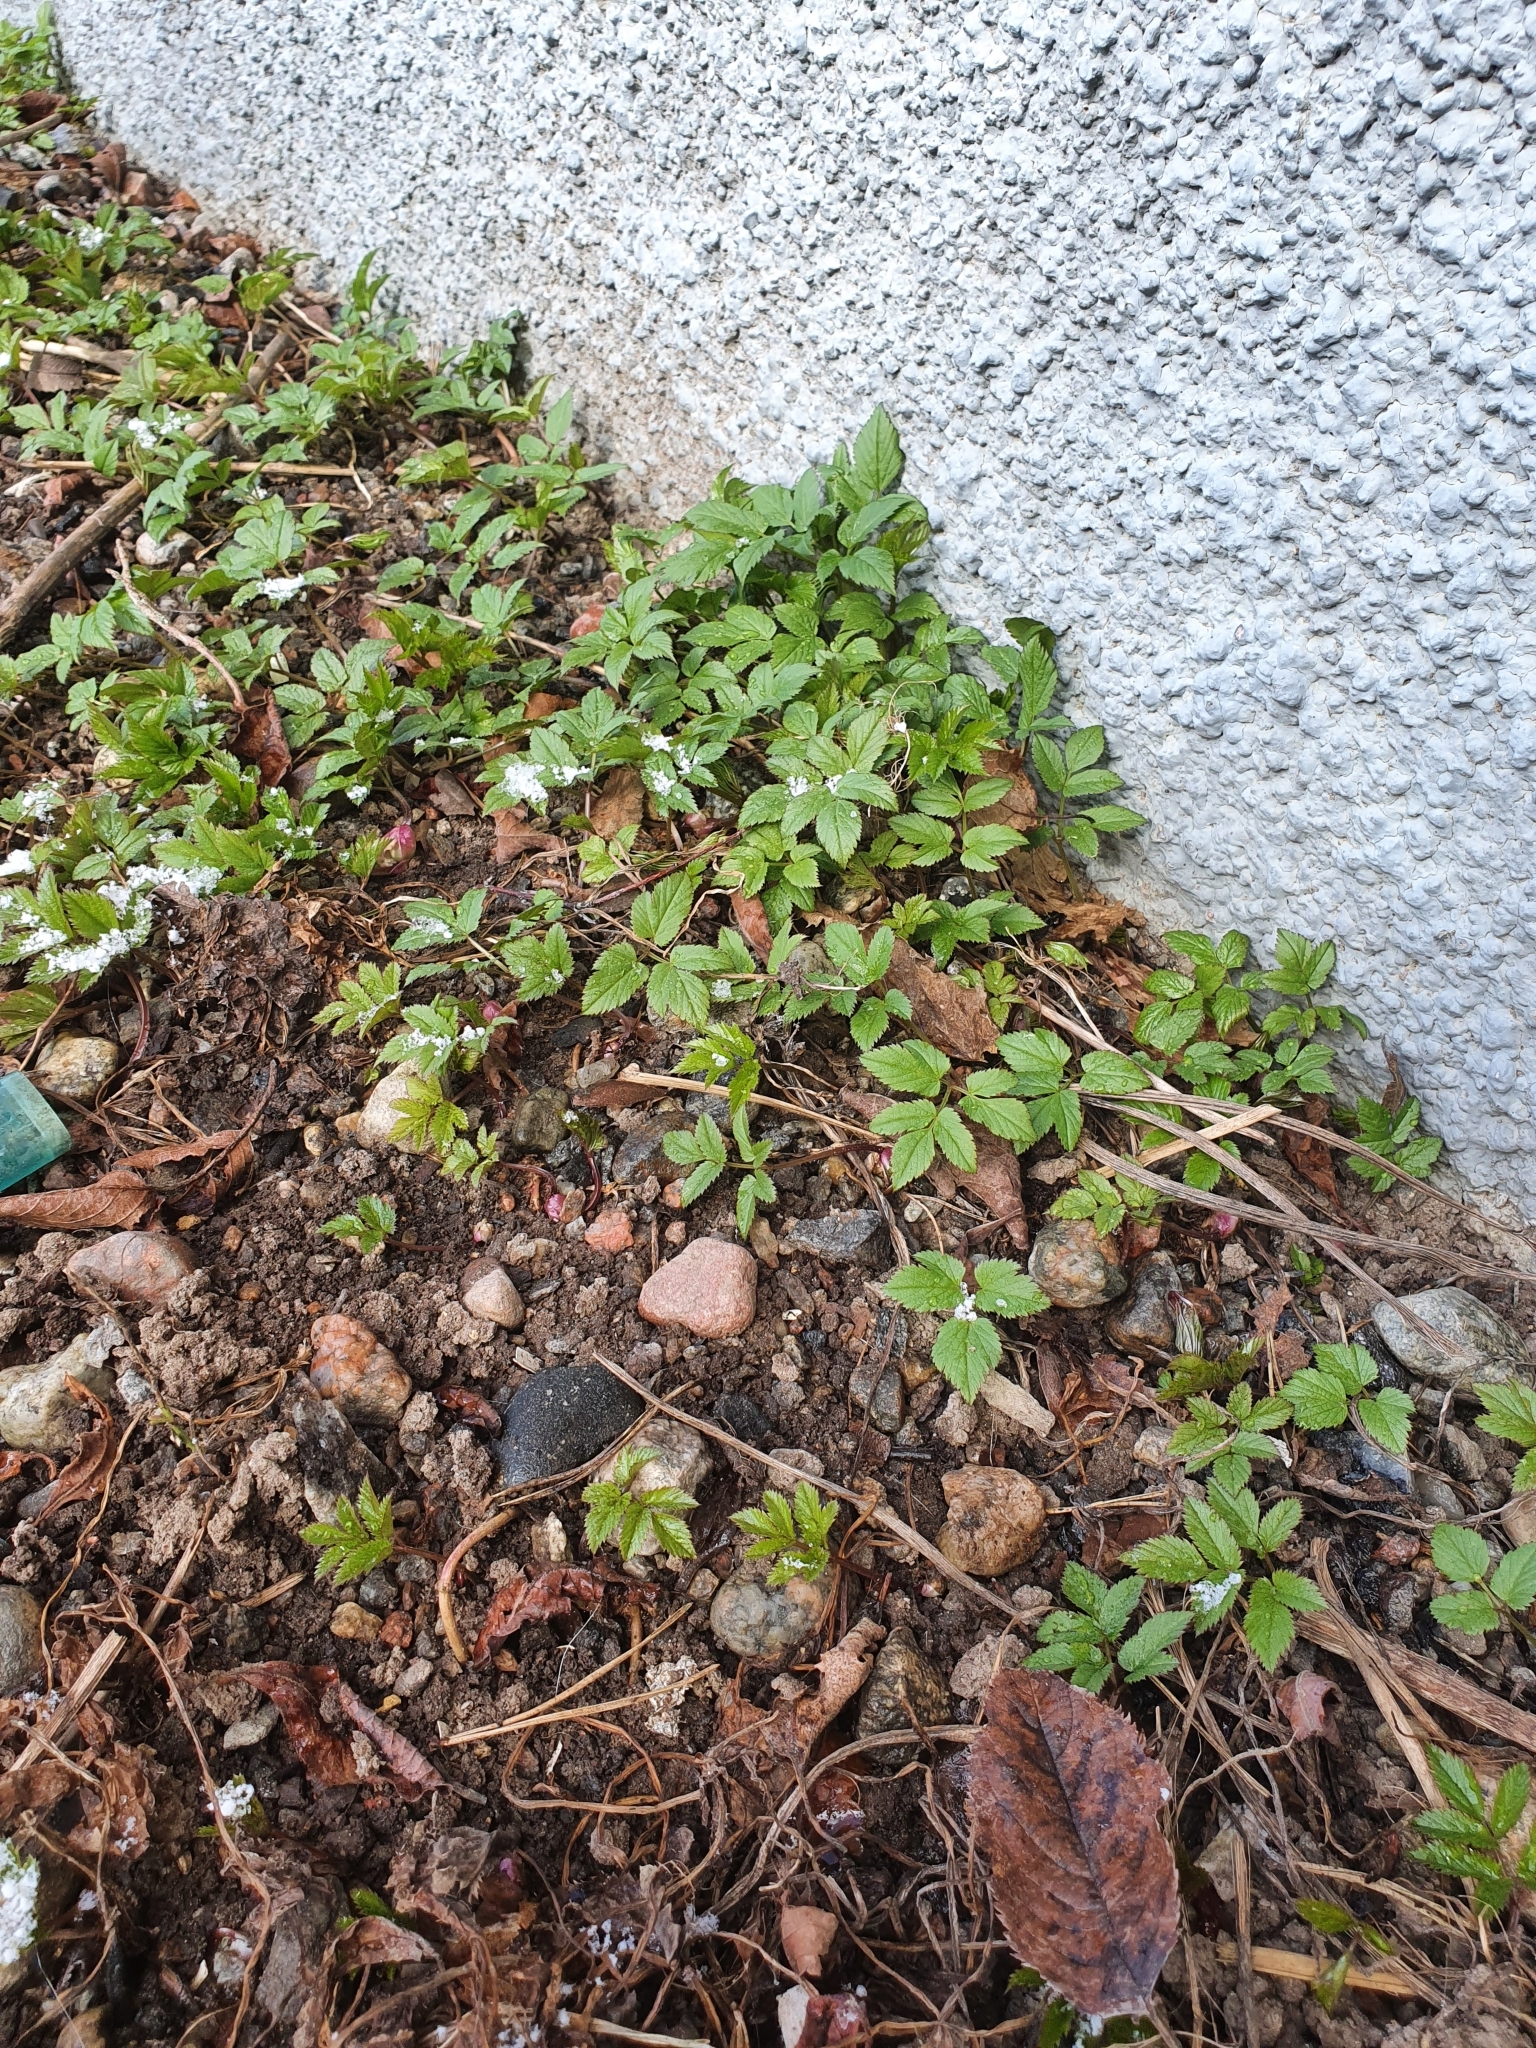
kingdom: Plantae
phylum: Tracheophyta
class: Magnoliopsida
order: Apiales
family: Apiaceae
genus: Aegopodium
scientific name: Aegopodium podagraria
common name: Ground-elder
